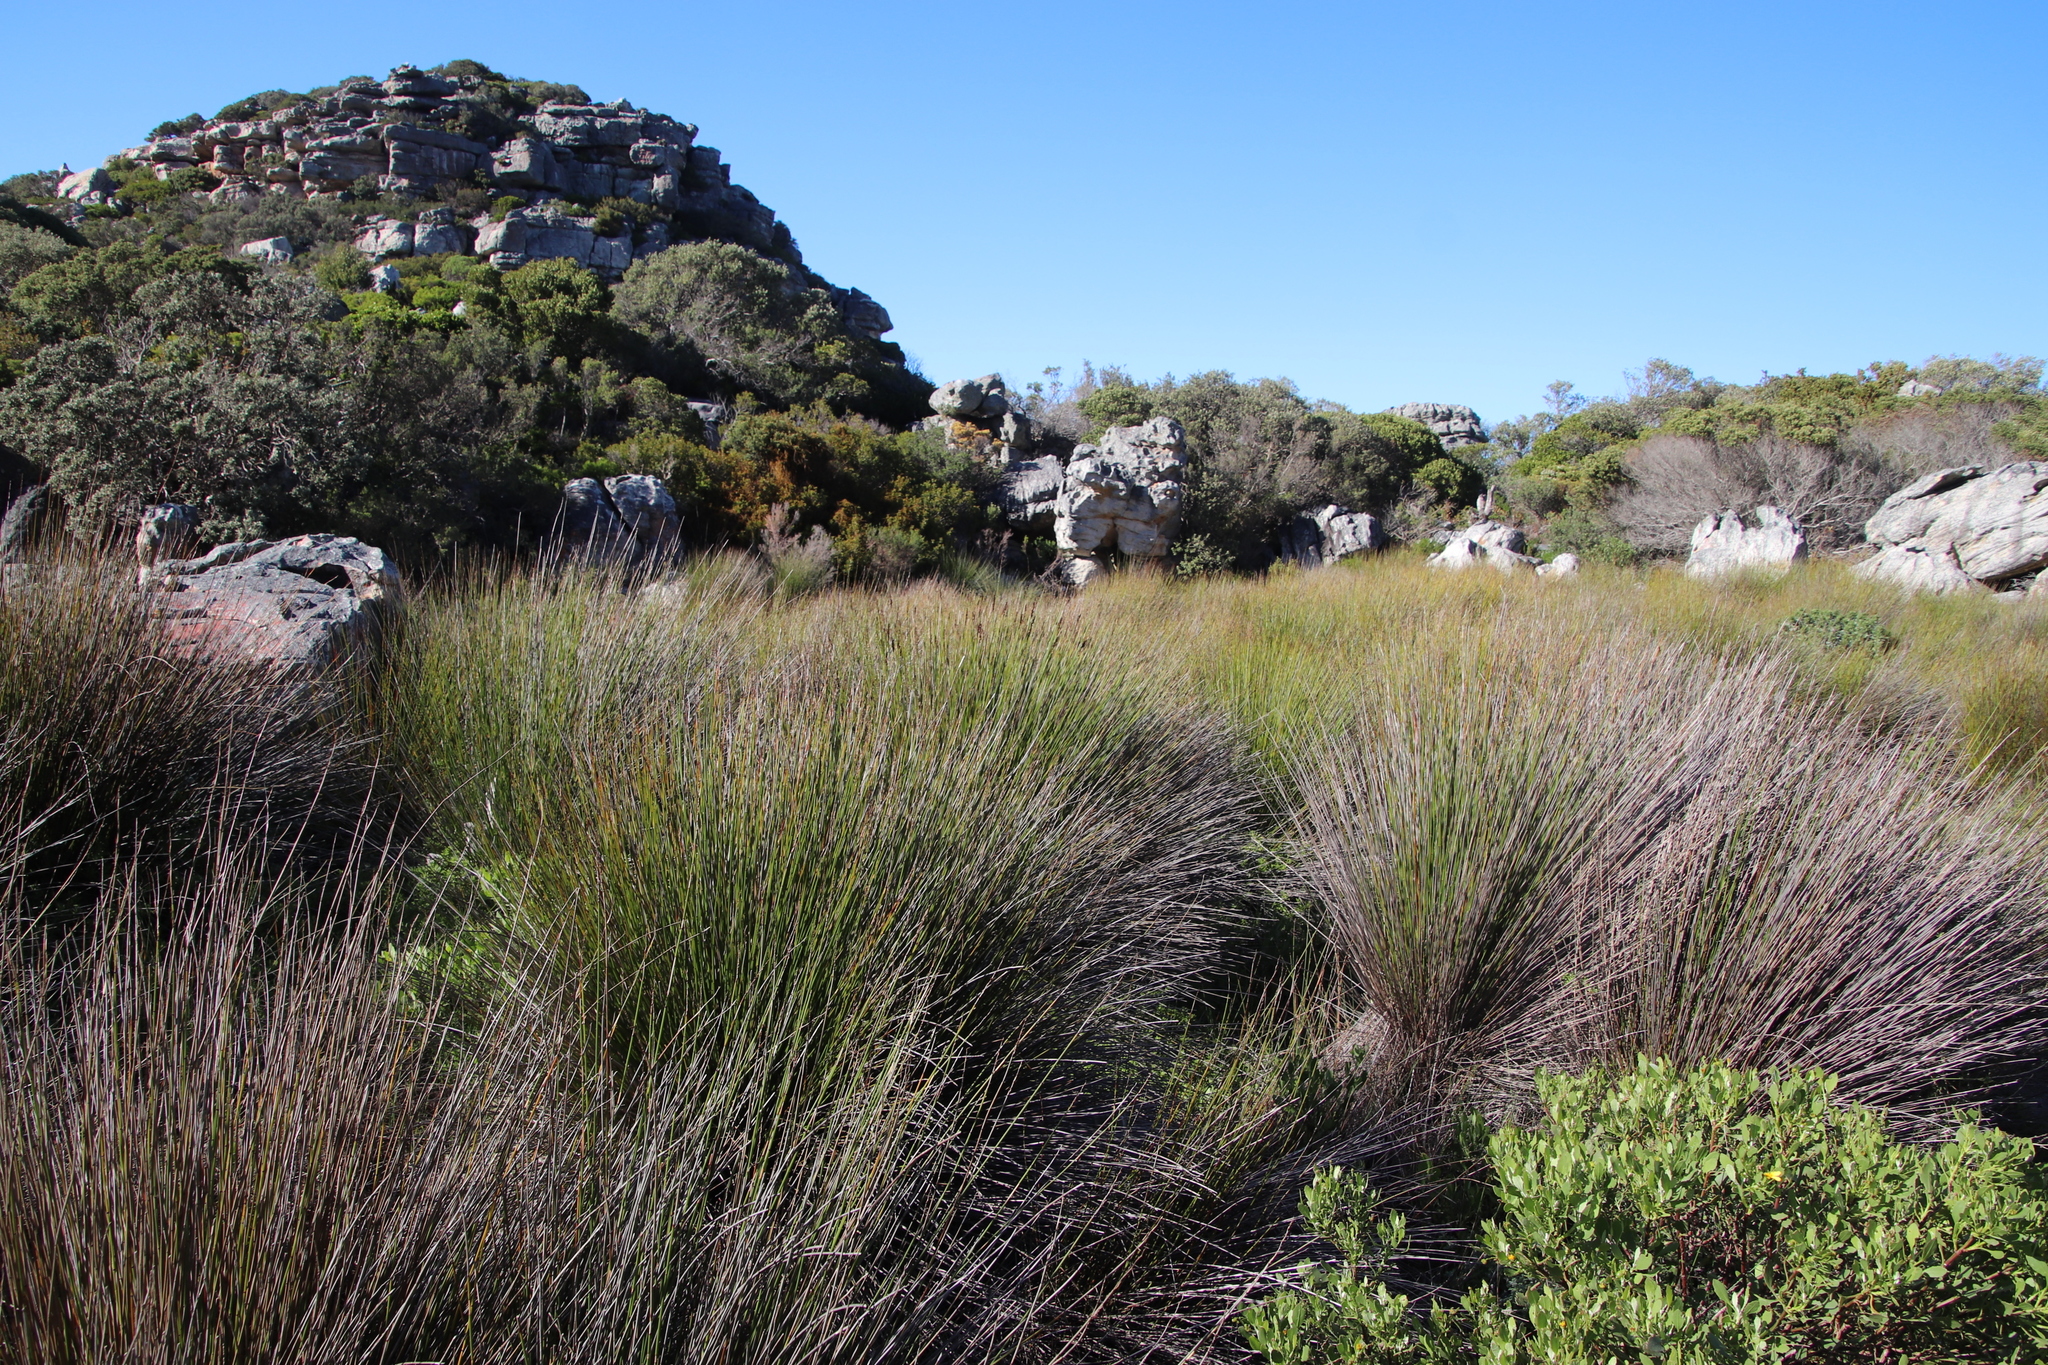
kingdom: Plantae
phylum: Tracheophyta
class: Liliopsida
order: Poales
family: Restionaceae
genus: Elegia
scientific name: Elegia tectorum
